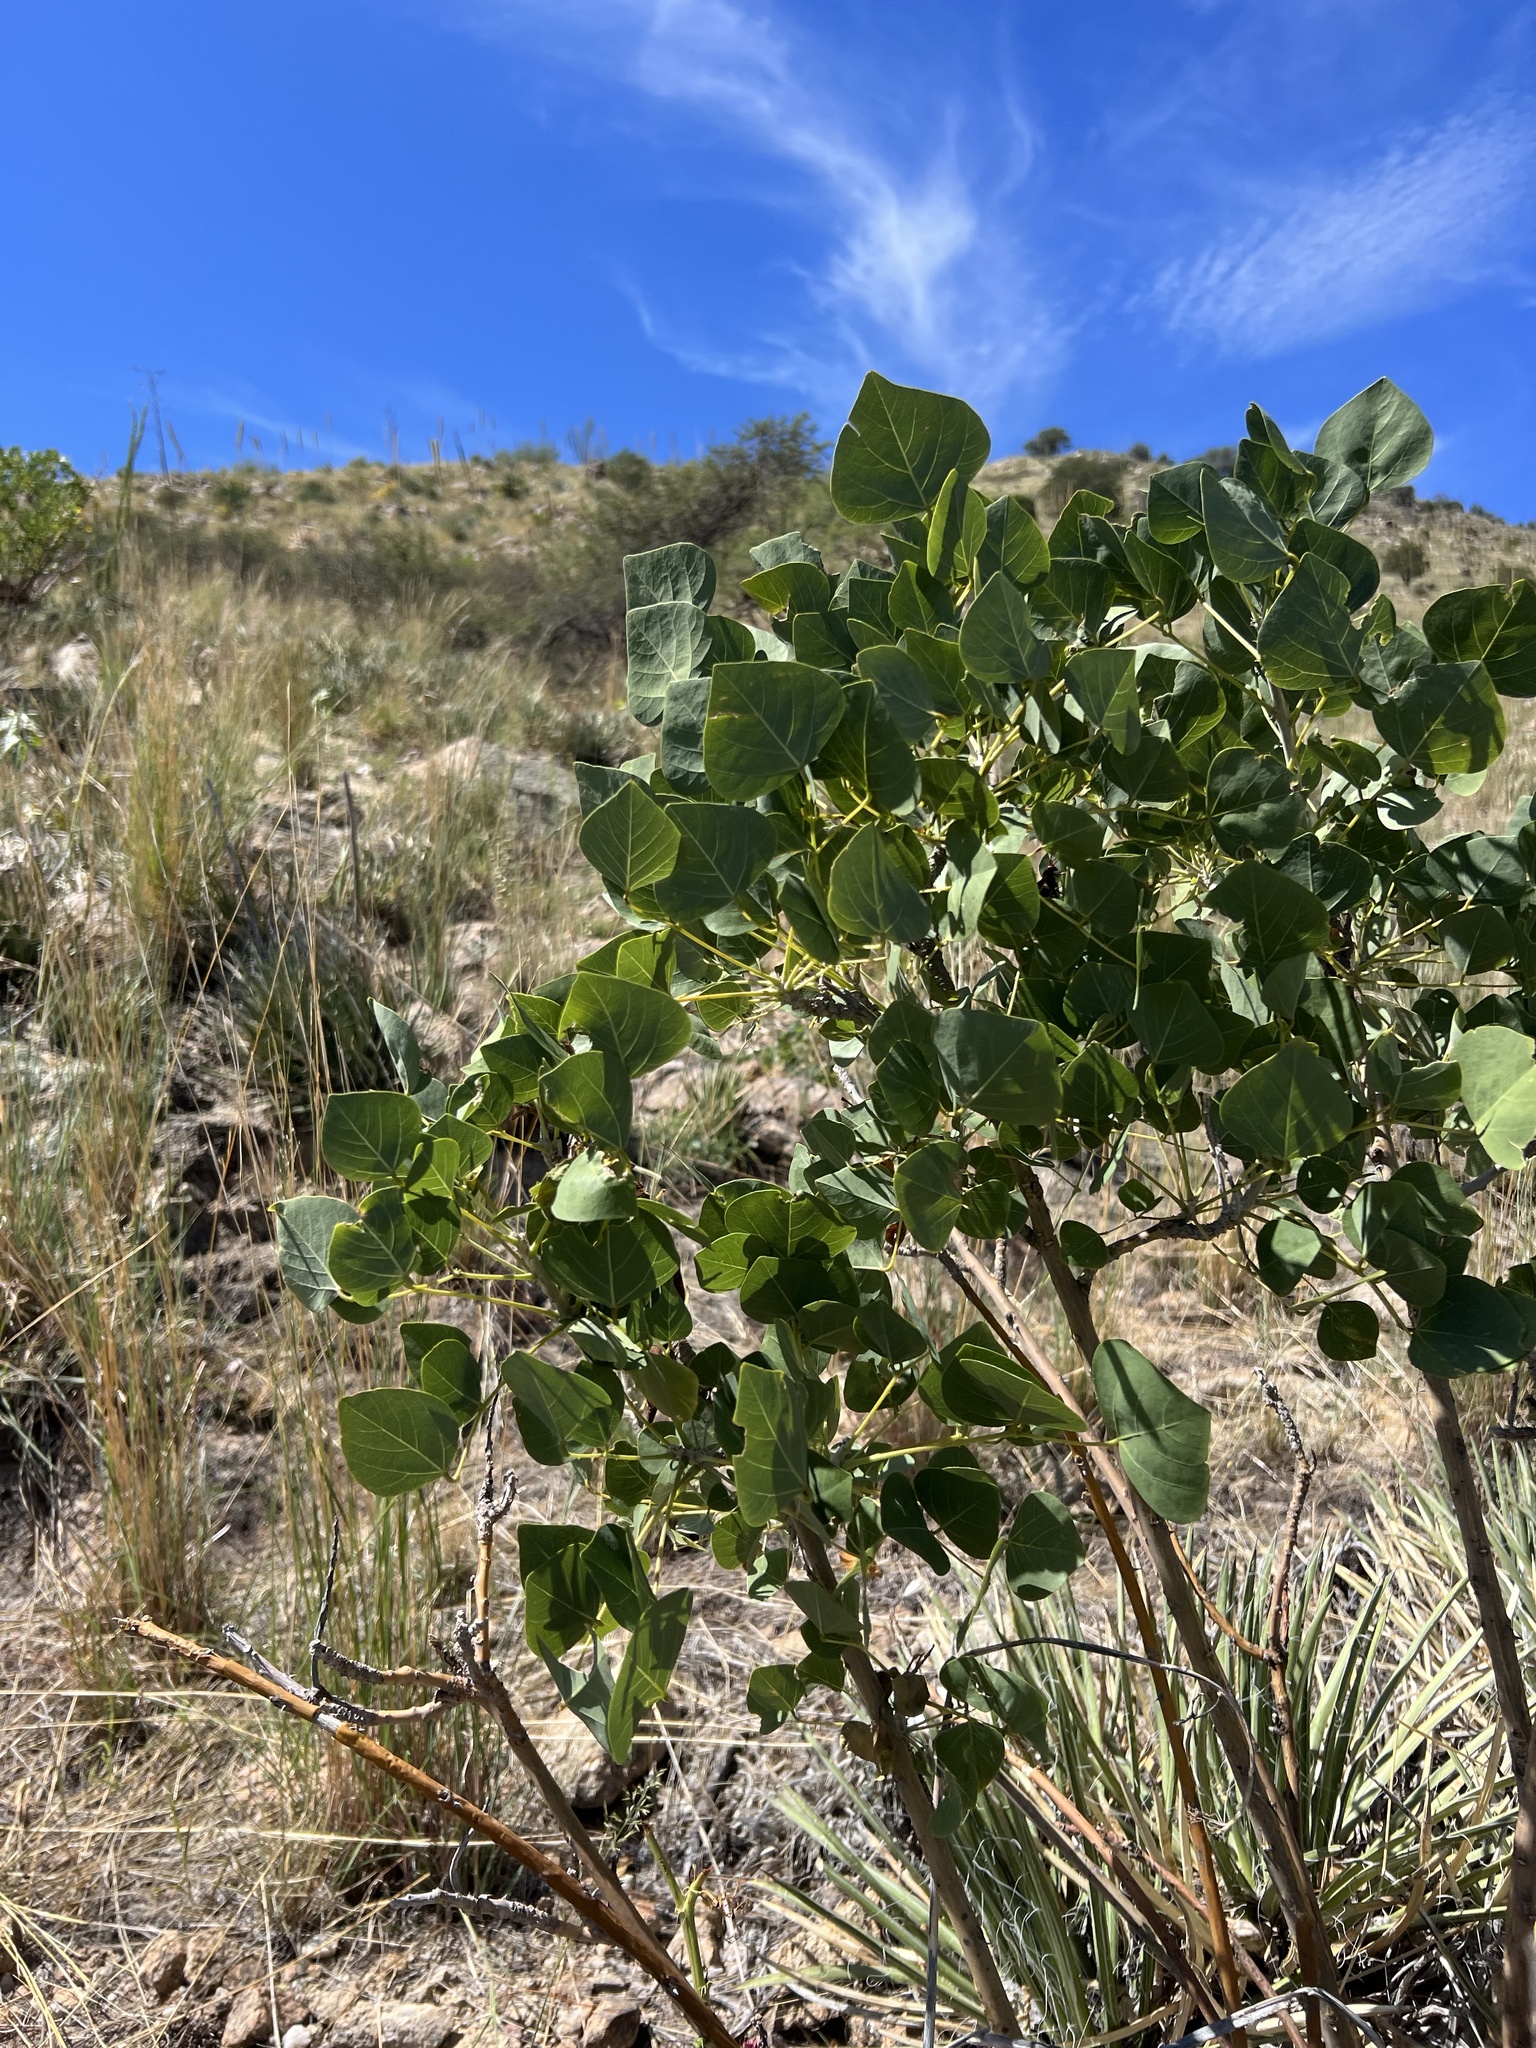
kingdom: Plantae
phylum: Tracheophyta
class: Magnoliopsida
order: Fabales
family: Fabaceae
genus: Erythrina
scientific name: Erythrina flabelliformis
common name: Chilicote
